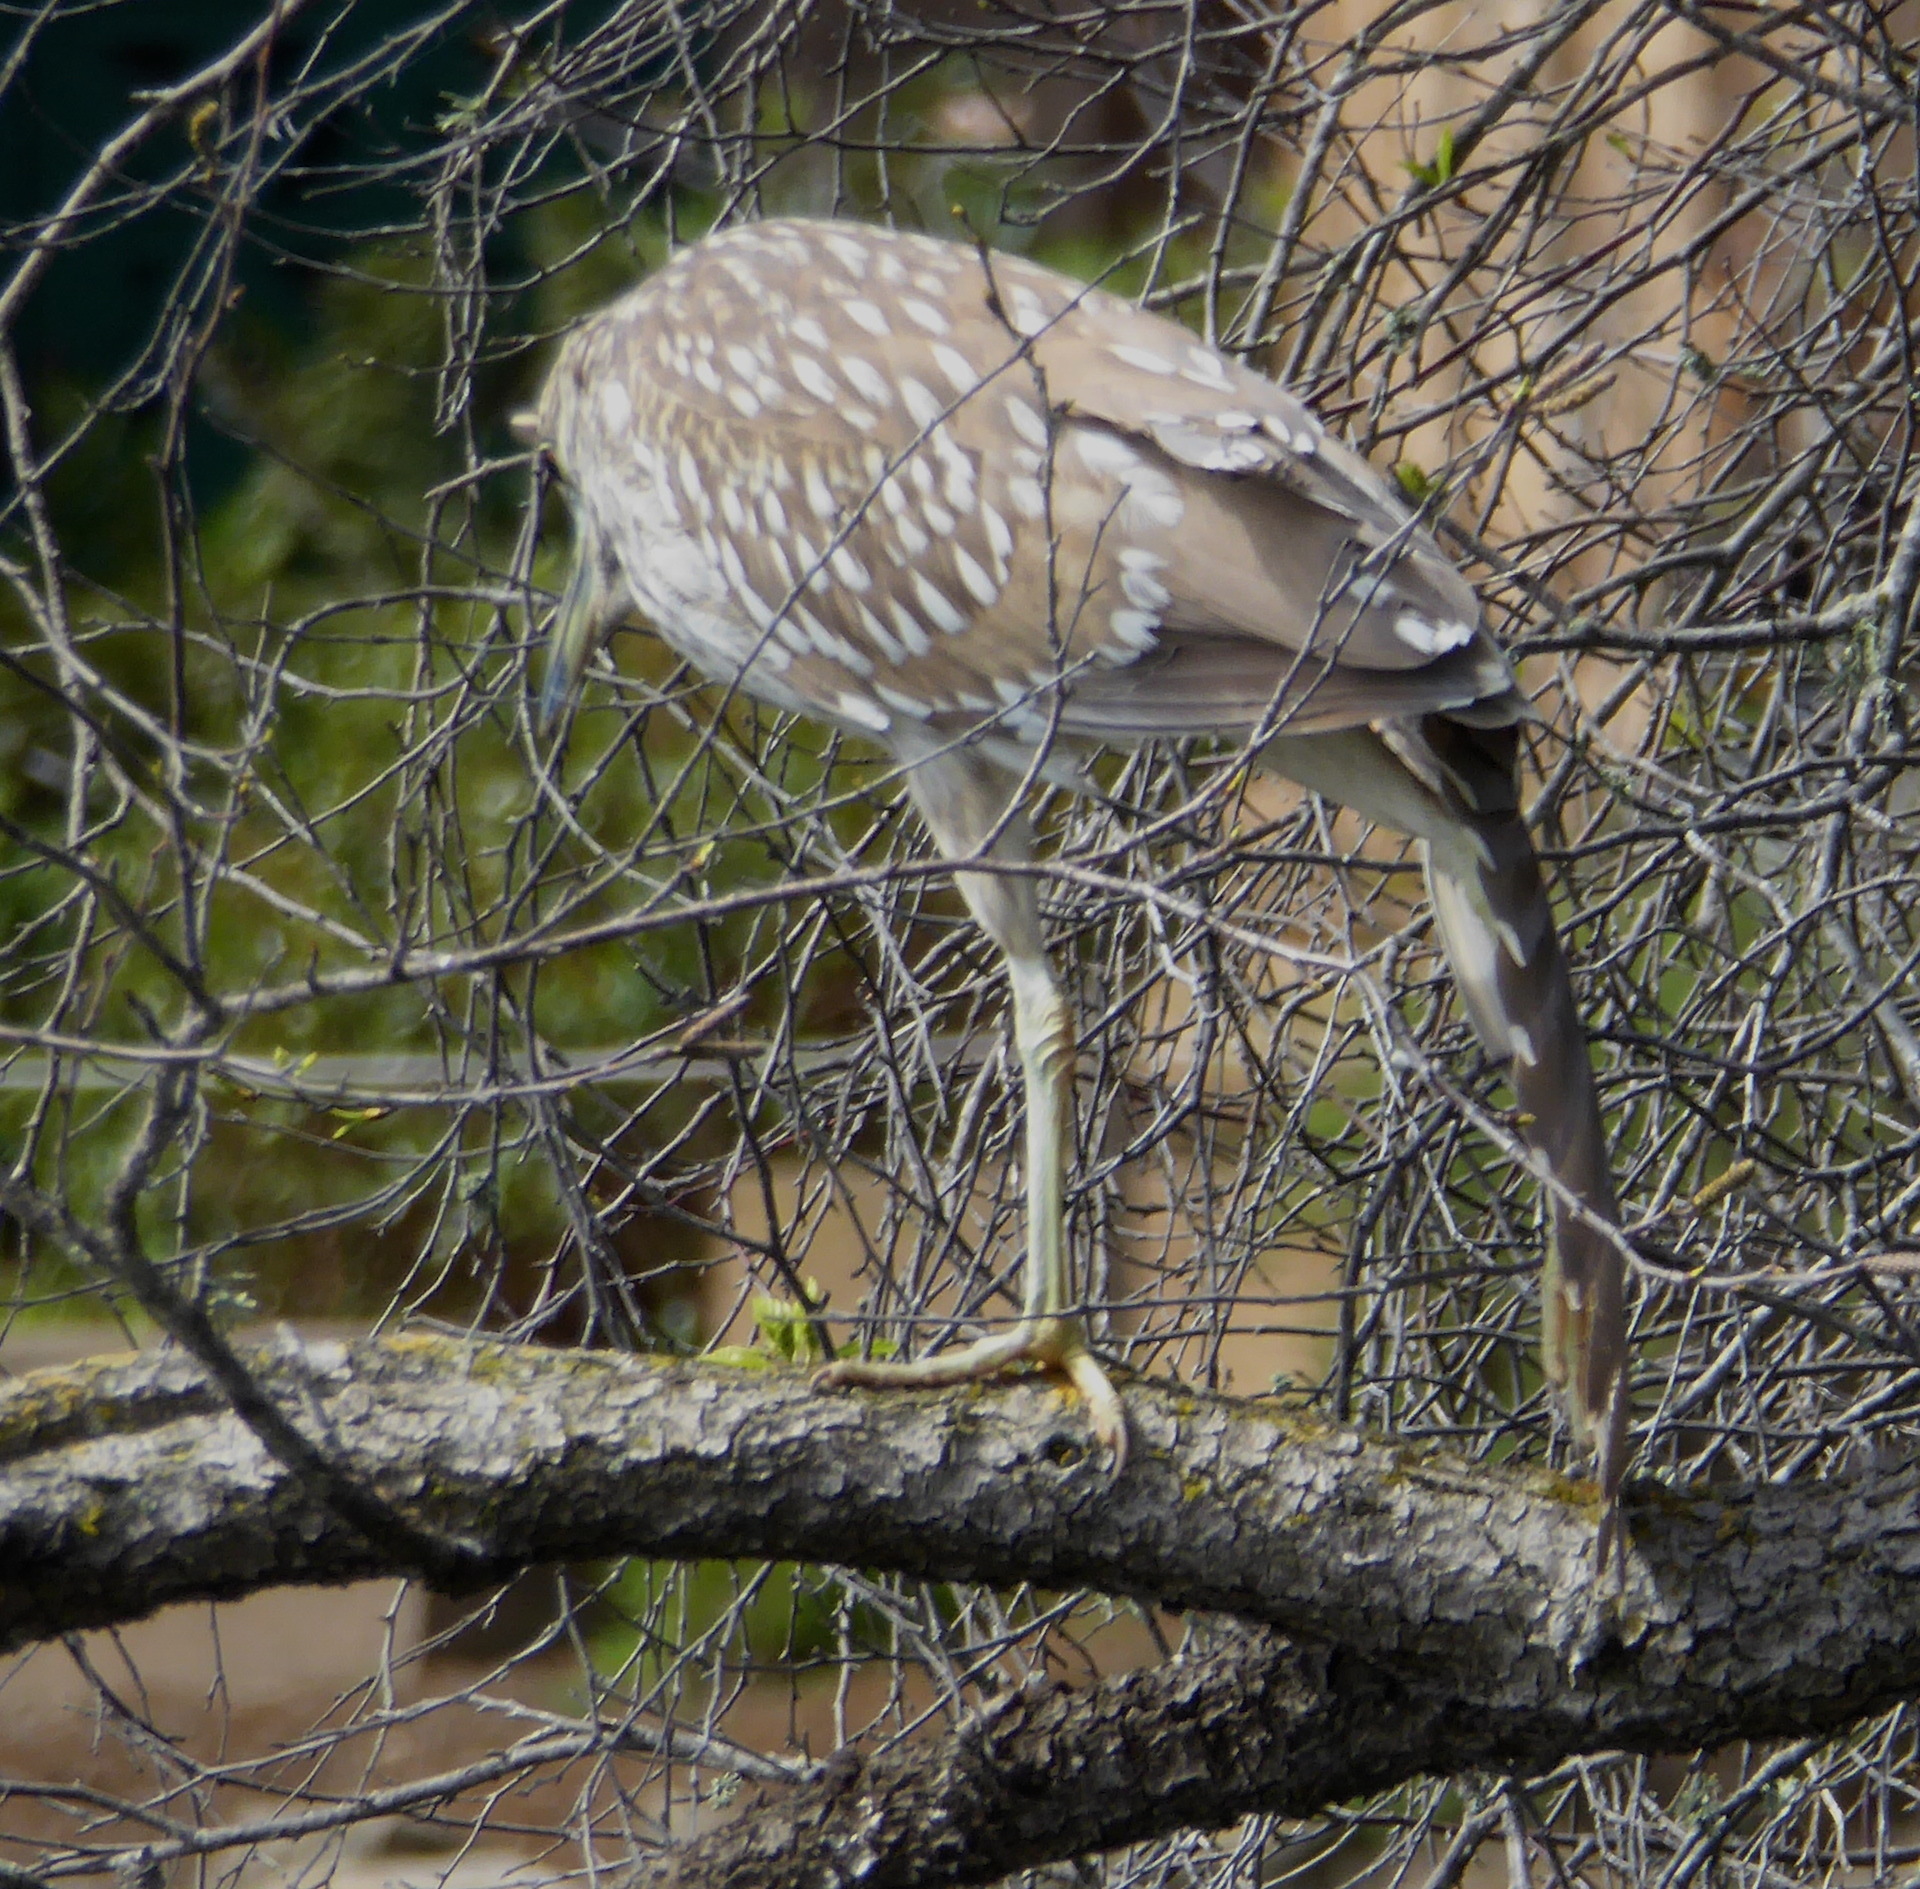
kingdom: Animalia
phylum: Chordata
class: Aves
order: Pelecaniformes
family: Ardeidae
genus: Nycticorax
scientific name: Nycticorax nycticorax
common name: Black-crowned night heron
